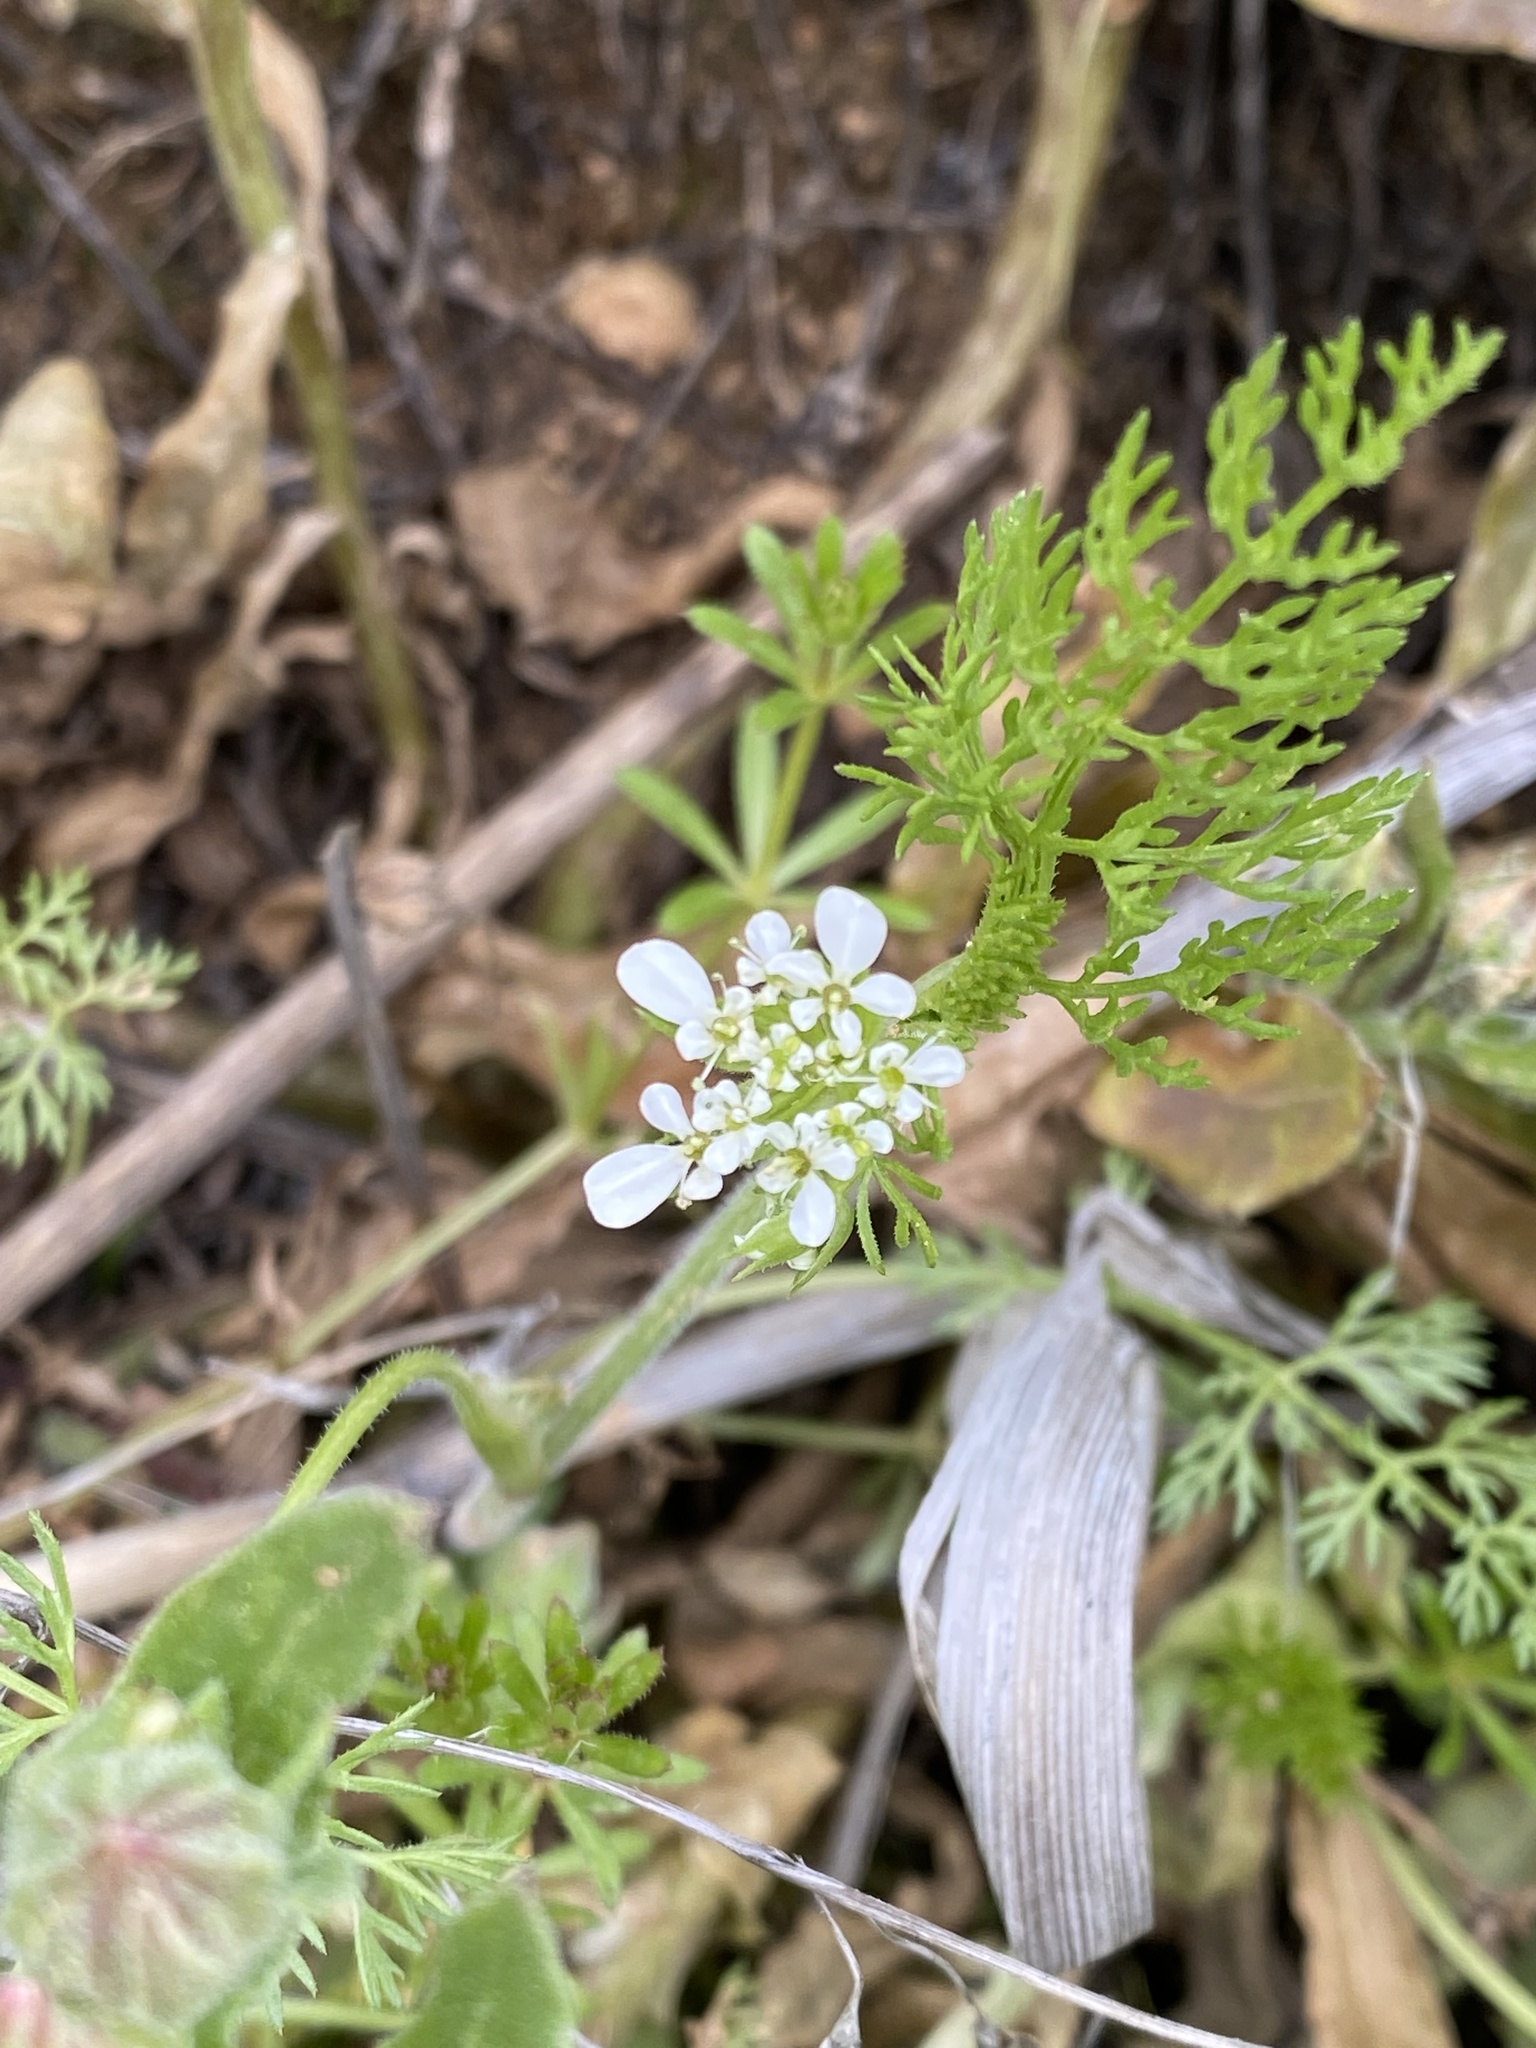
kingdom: Plantae
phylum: Tracheophyta
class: Magnoliopsida
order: Apiales
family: Apiaceae
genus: Scandix
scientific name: Scandix pecten-veneris
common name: Shepherd's-needle
